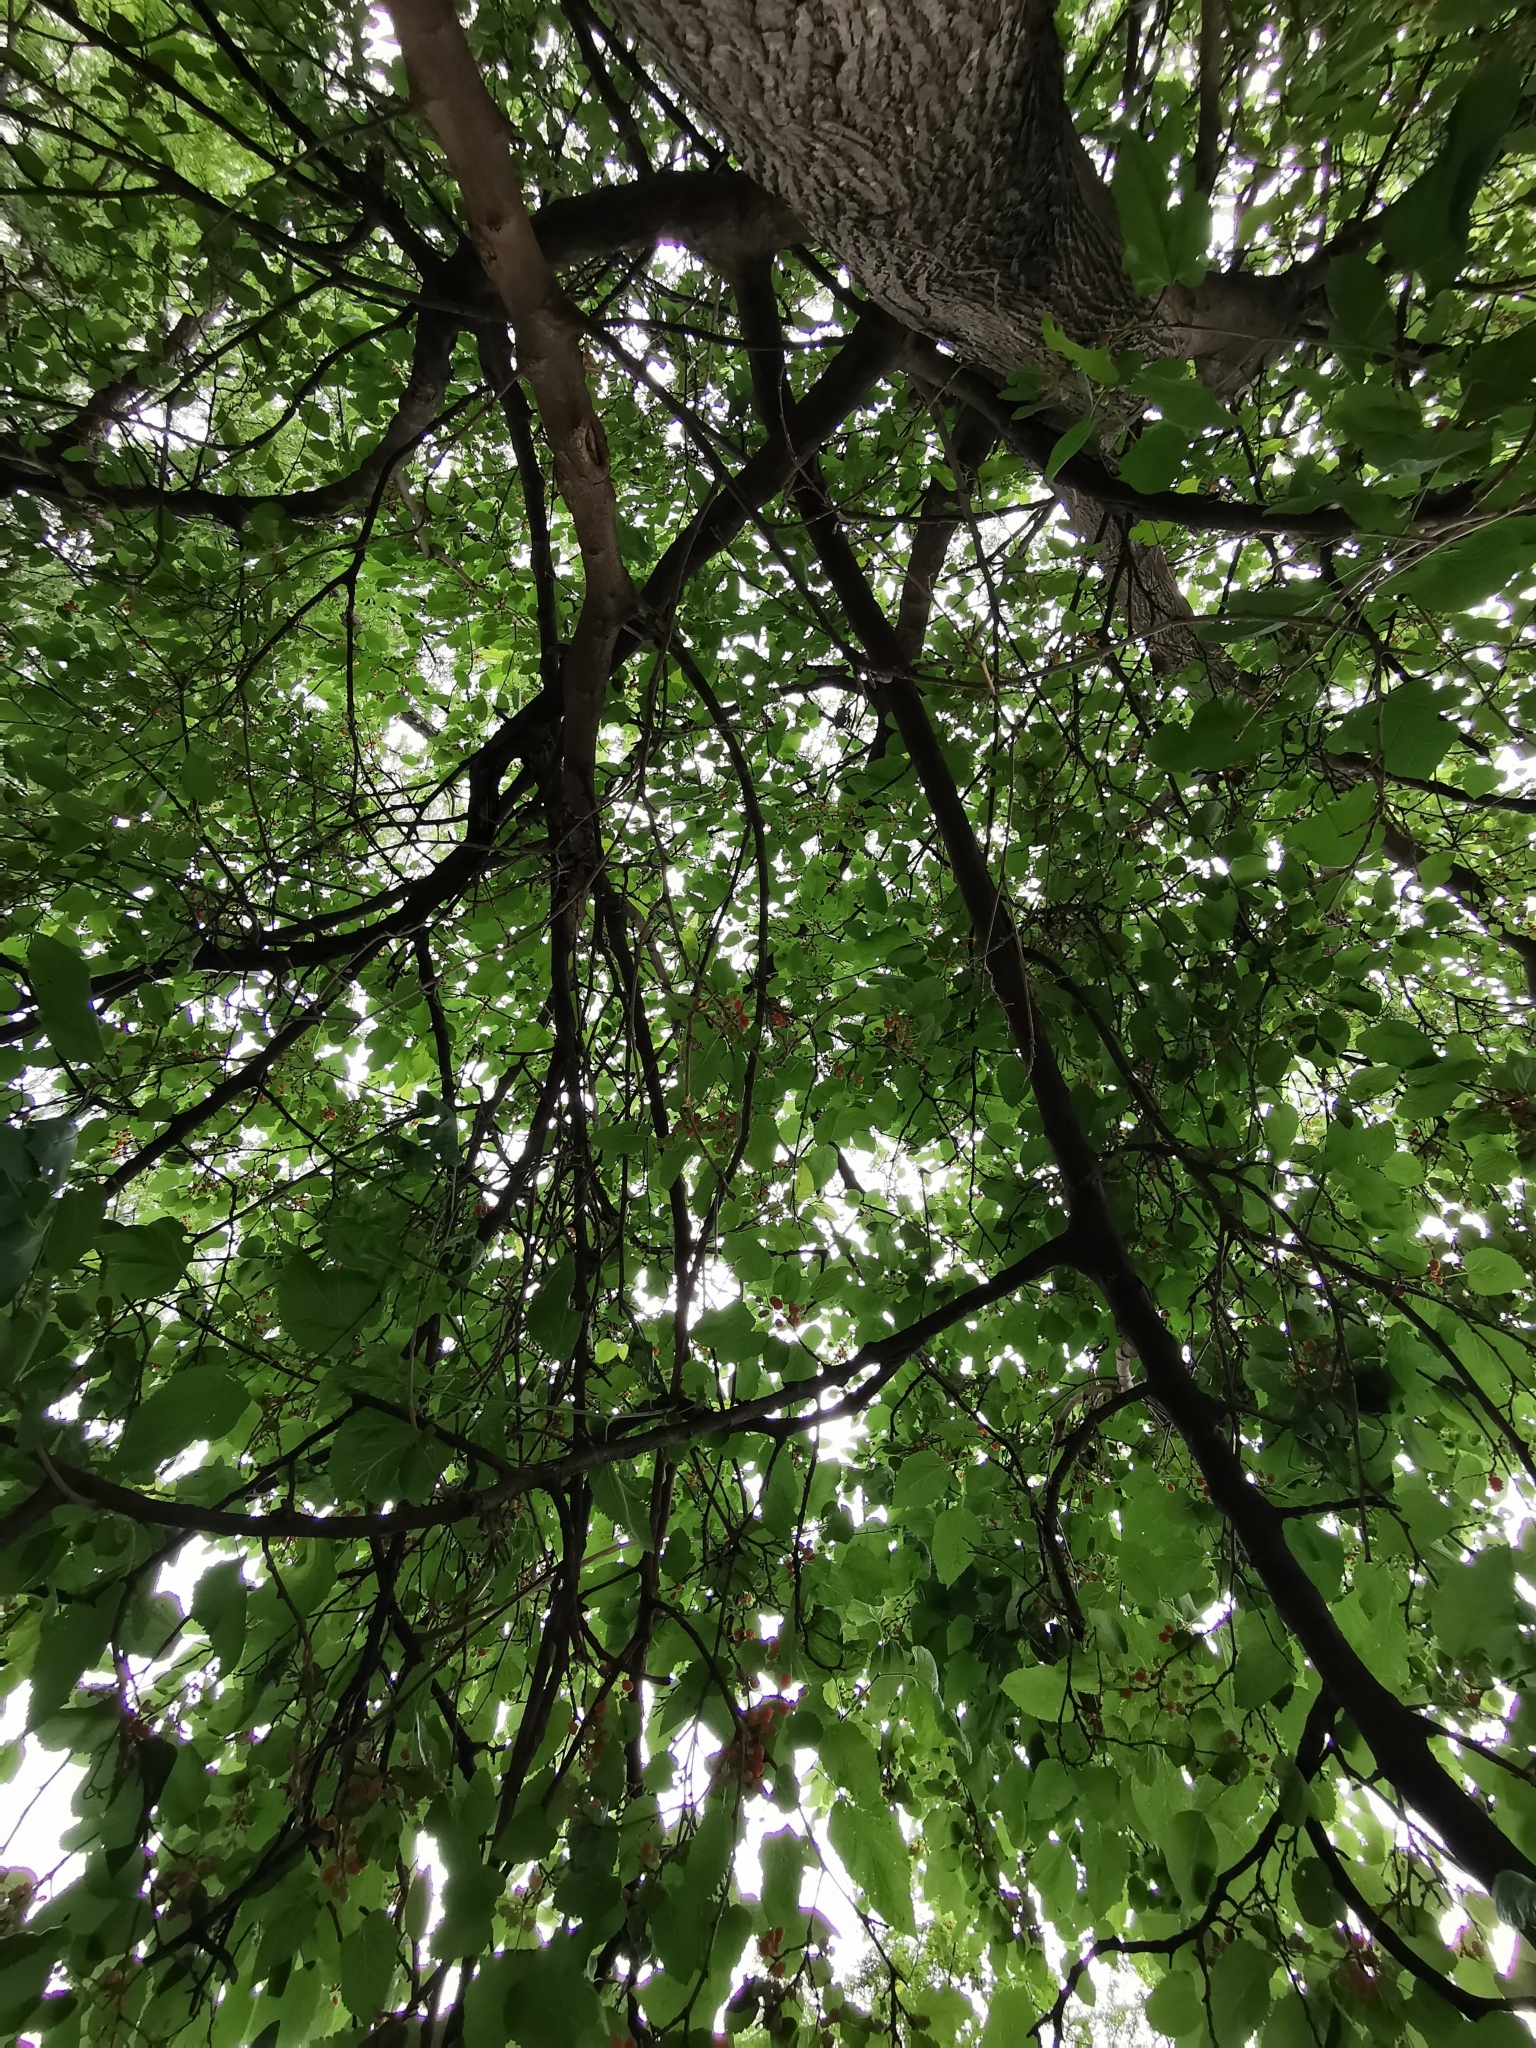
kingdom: Plantae
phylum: Tracheophyta
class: Magnoliopsida
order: Rosales
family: Moraceae
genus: Morus
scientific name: Morus nigra
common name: Black mulberry
